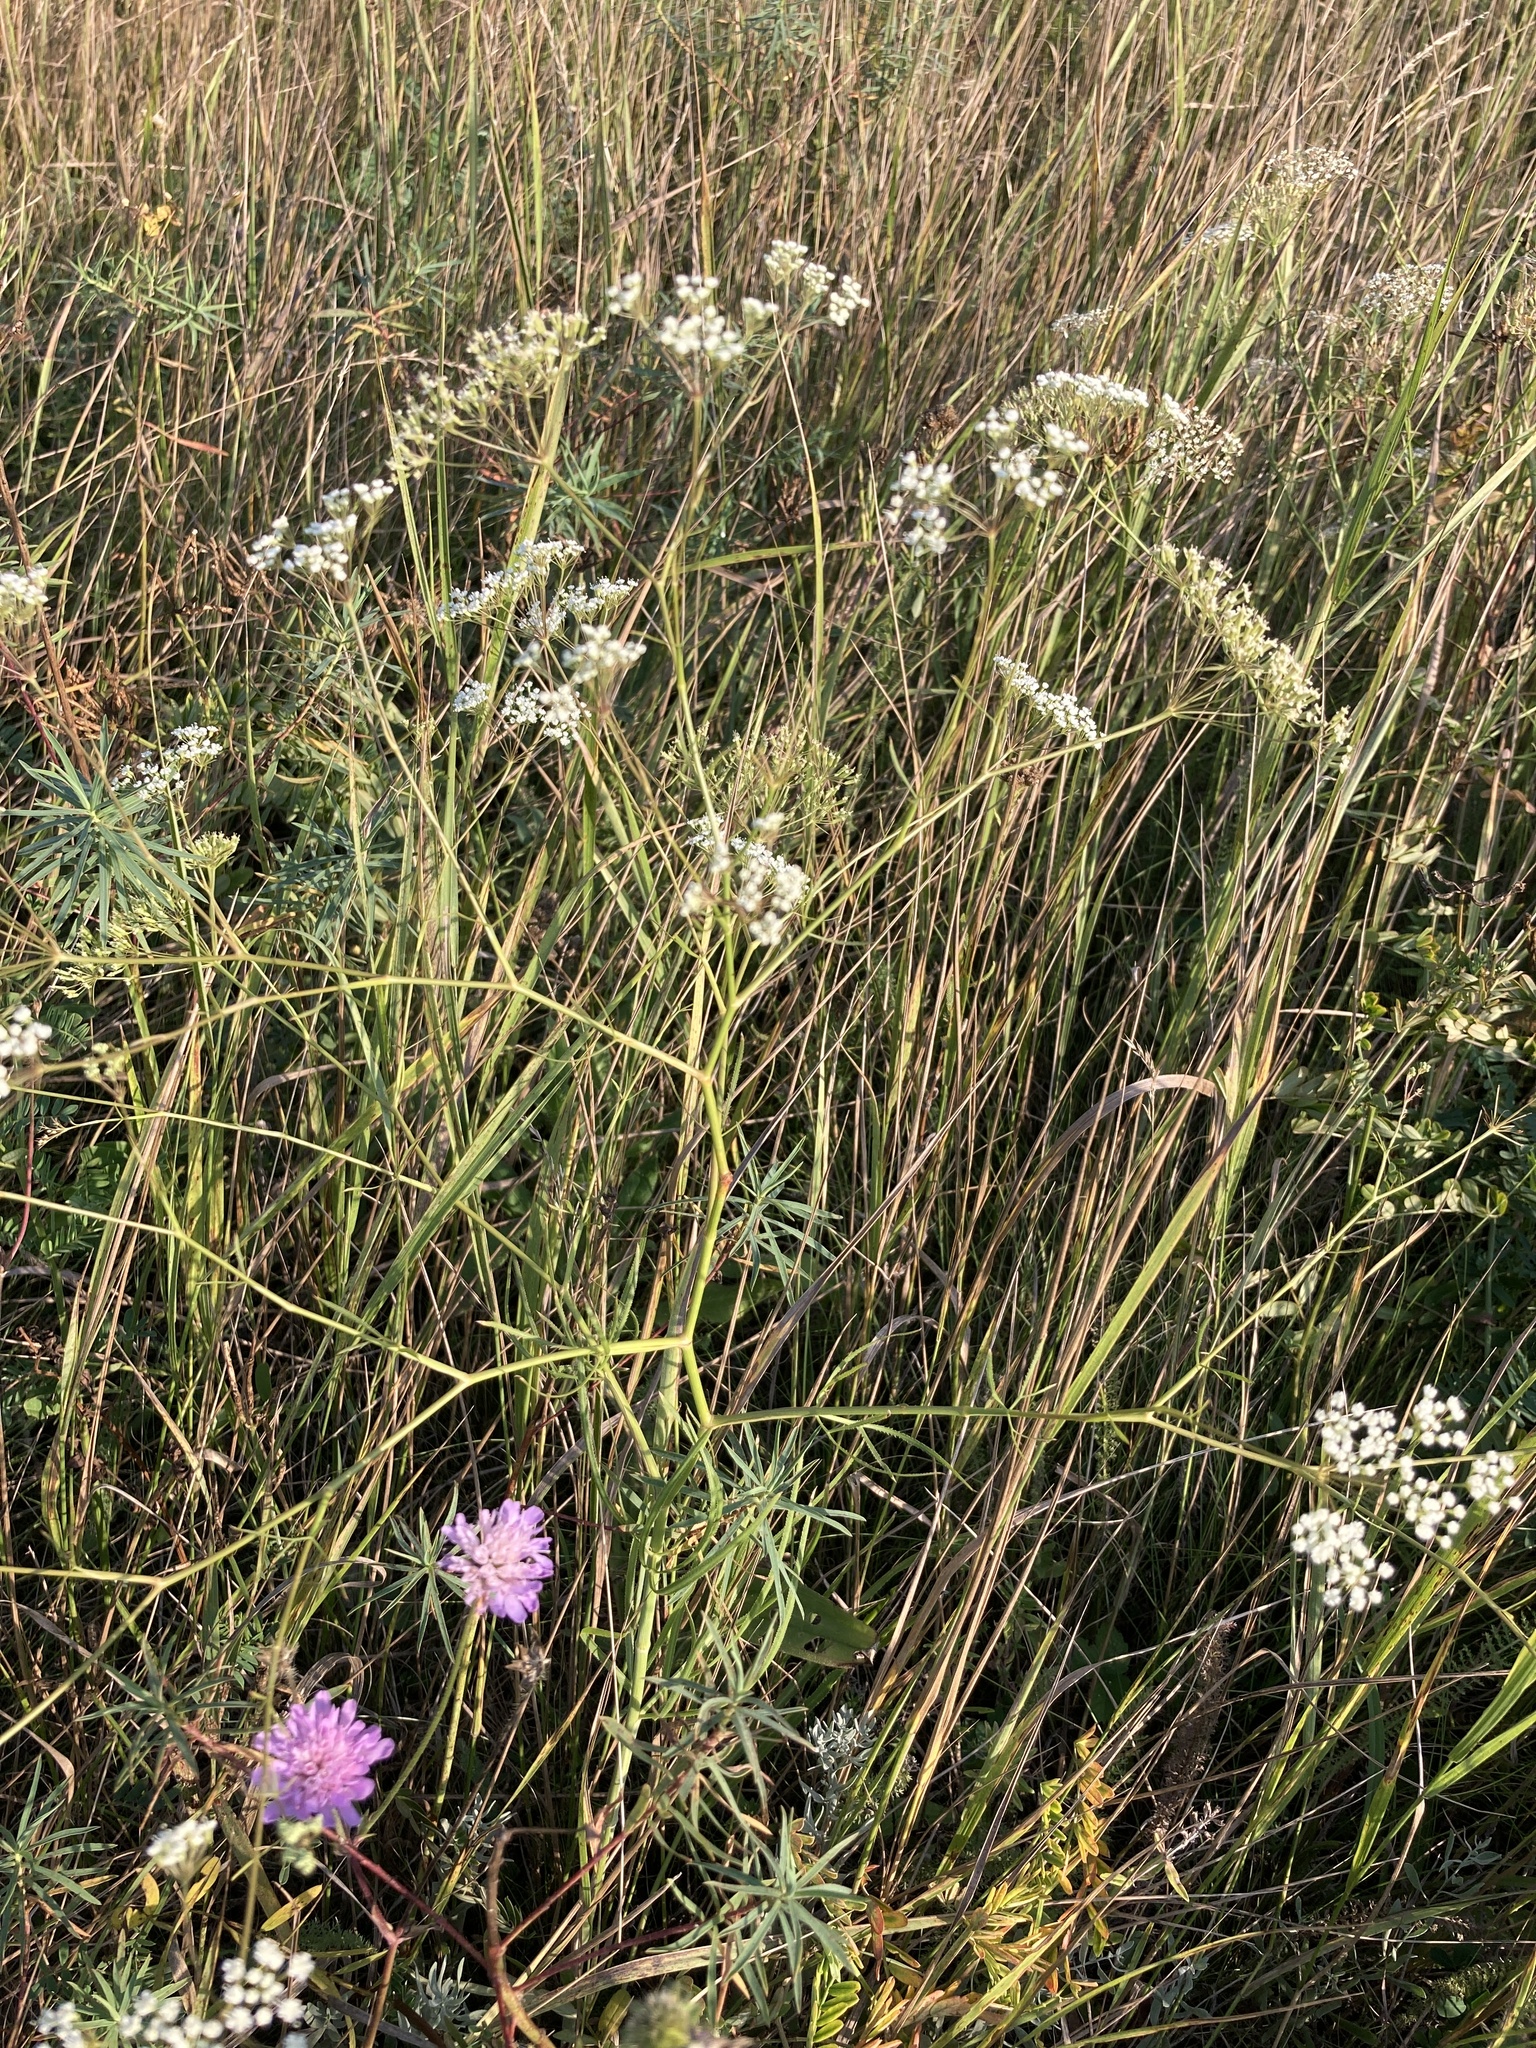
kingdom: Plantae
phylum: Tracheophyta
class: Magnoliopsida
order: Apiales
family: Apiaceae
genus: Falcaria
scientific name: Falcaria vulgaris
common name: Longleaf
